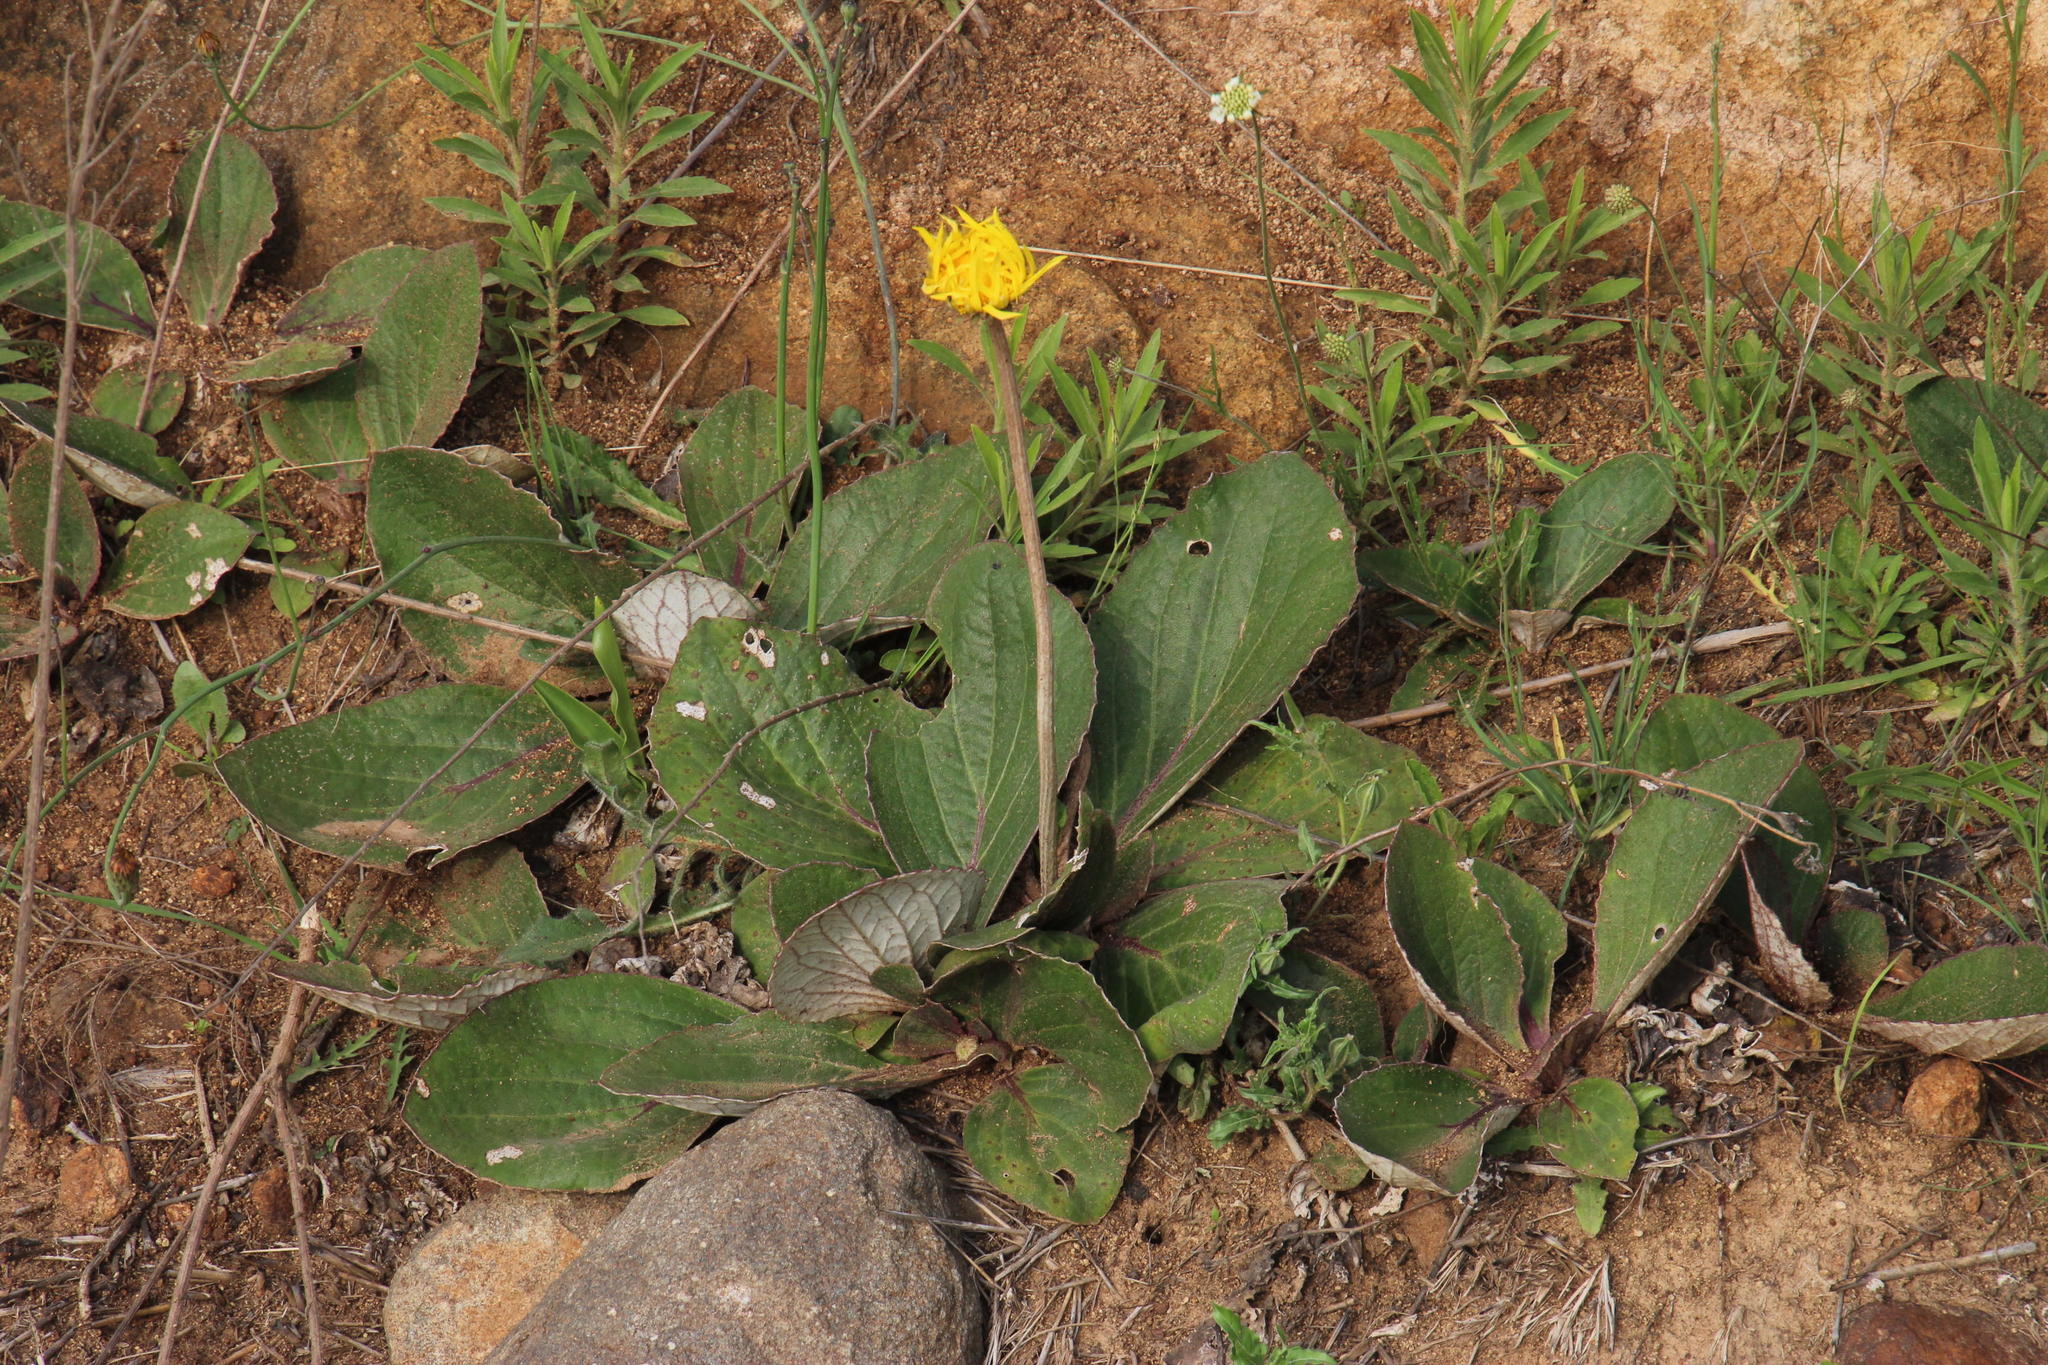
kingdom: Plantae
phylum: Tracheophyta
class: Magnoliopsida
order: Asterales
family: Asteraceae
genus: Haplocarpha
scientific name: Haplocarpha scaposa
